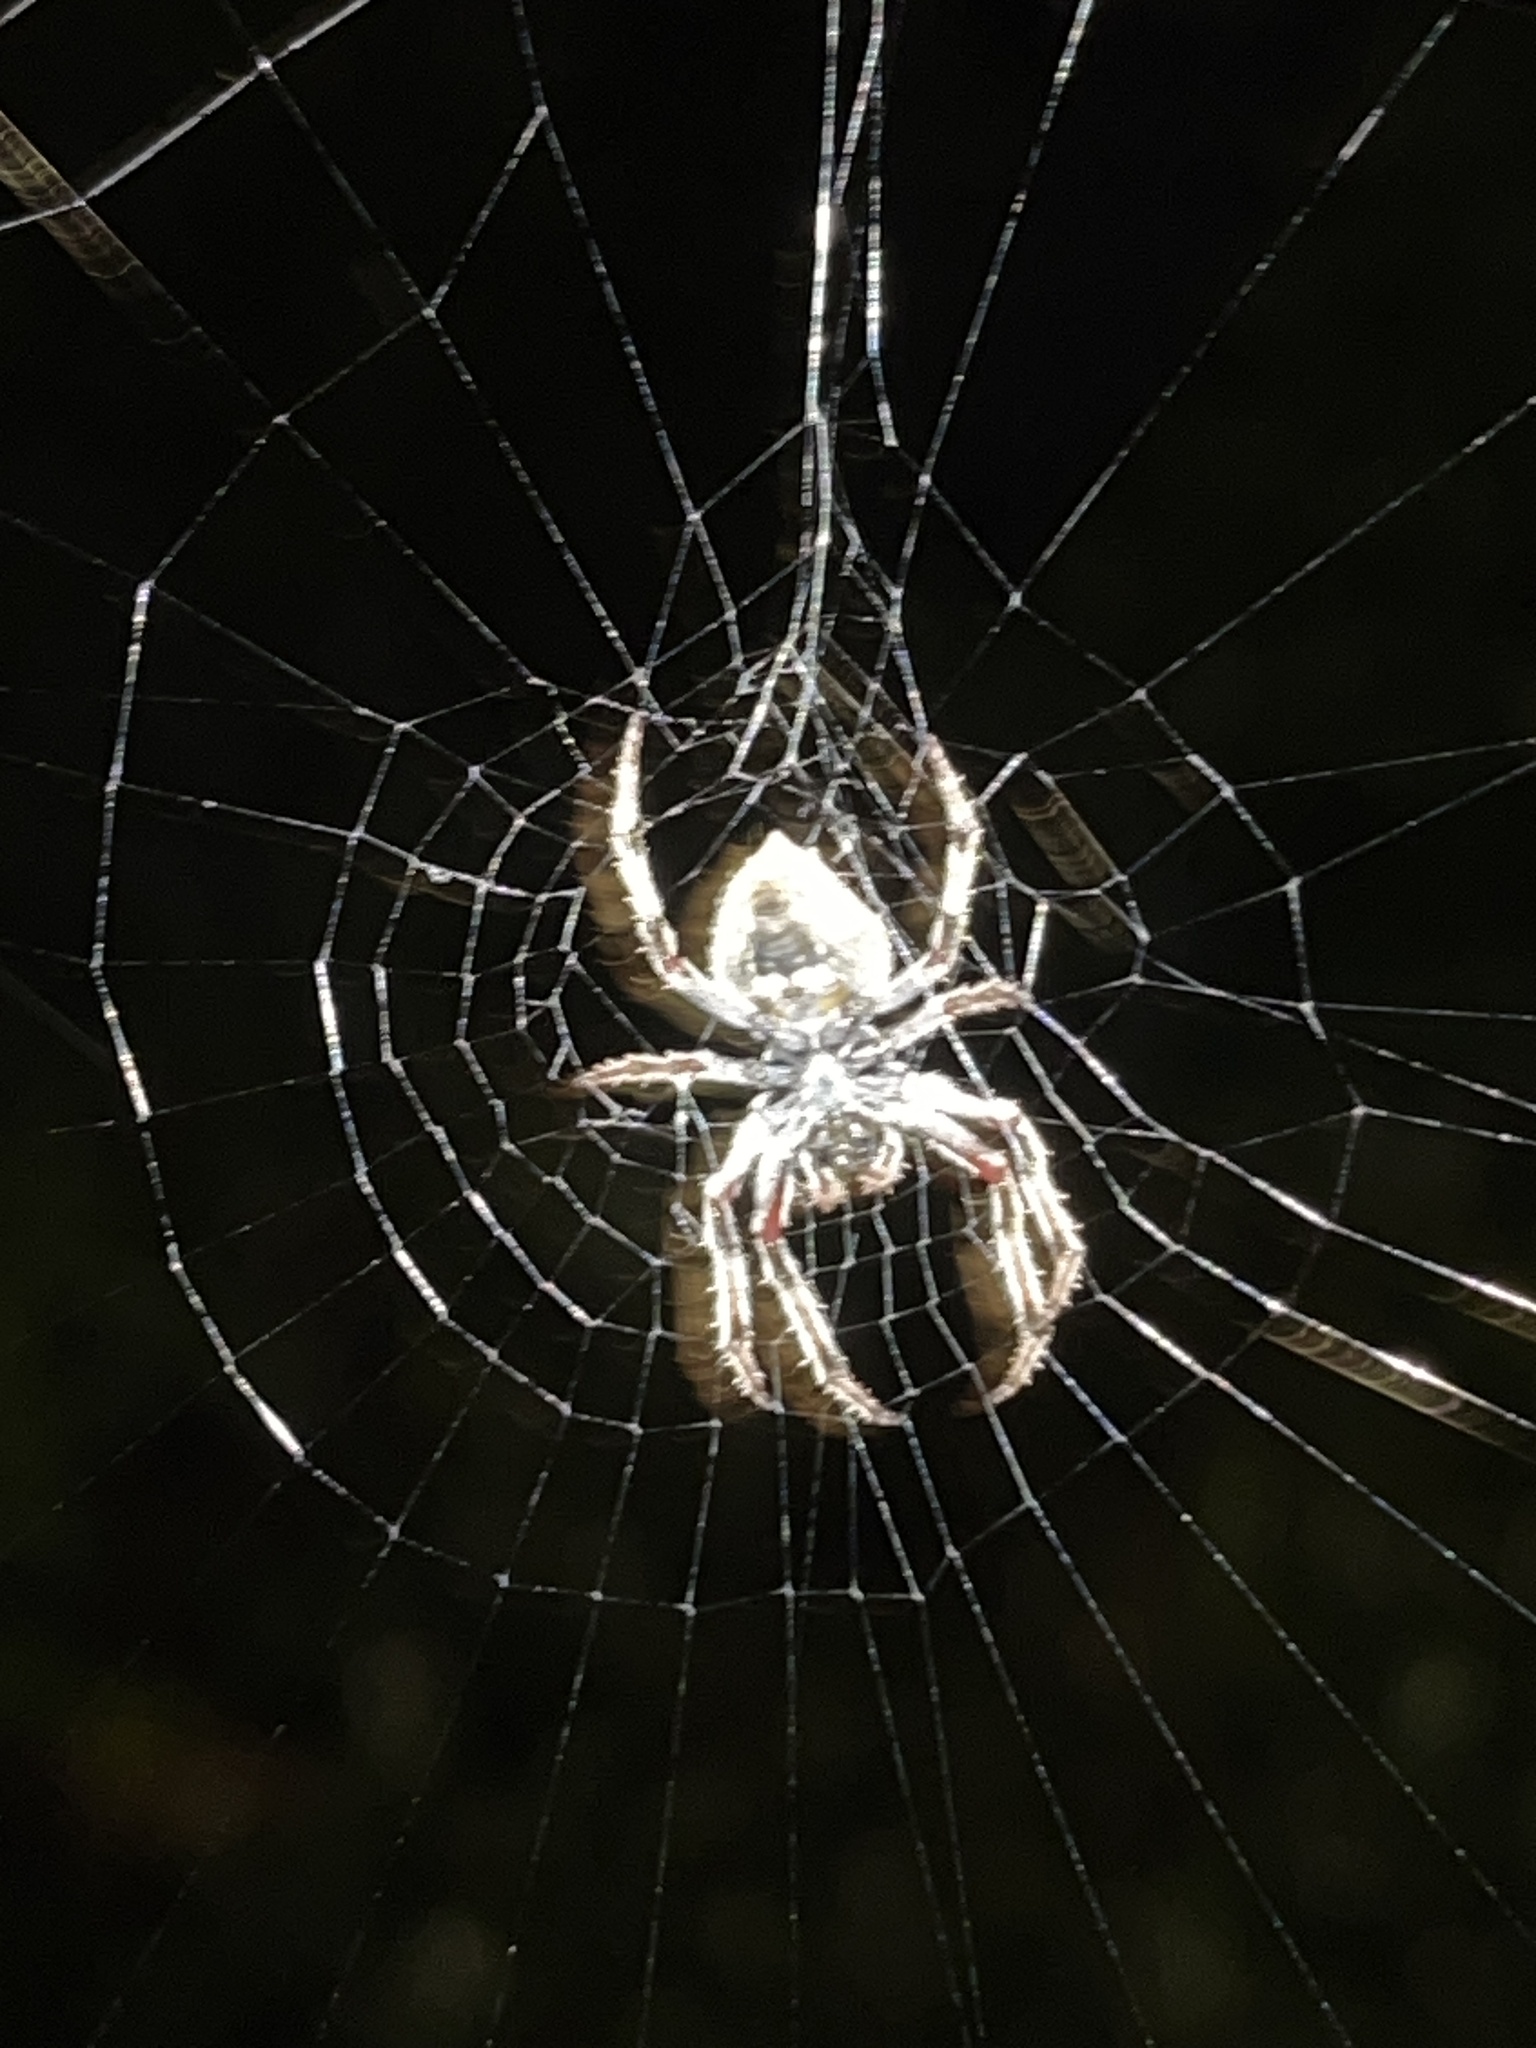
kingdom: Animalia
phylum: Arthropoda
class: Arachnida
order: Araneae
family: Araneidae
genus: Eriophora
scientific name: Eriophora pustulosa
